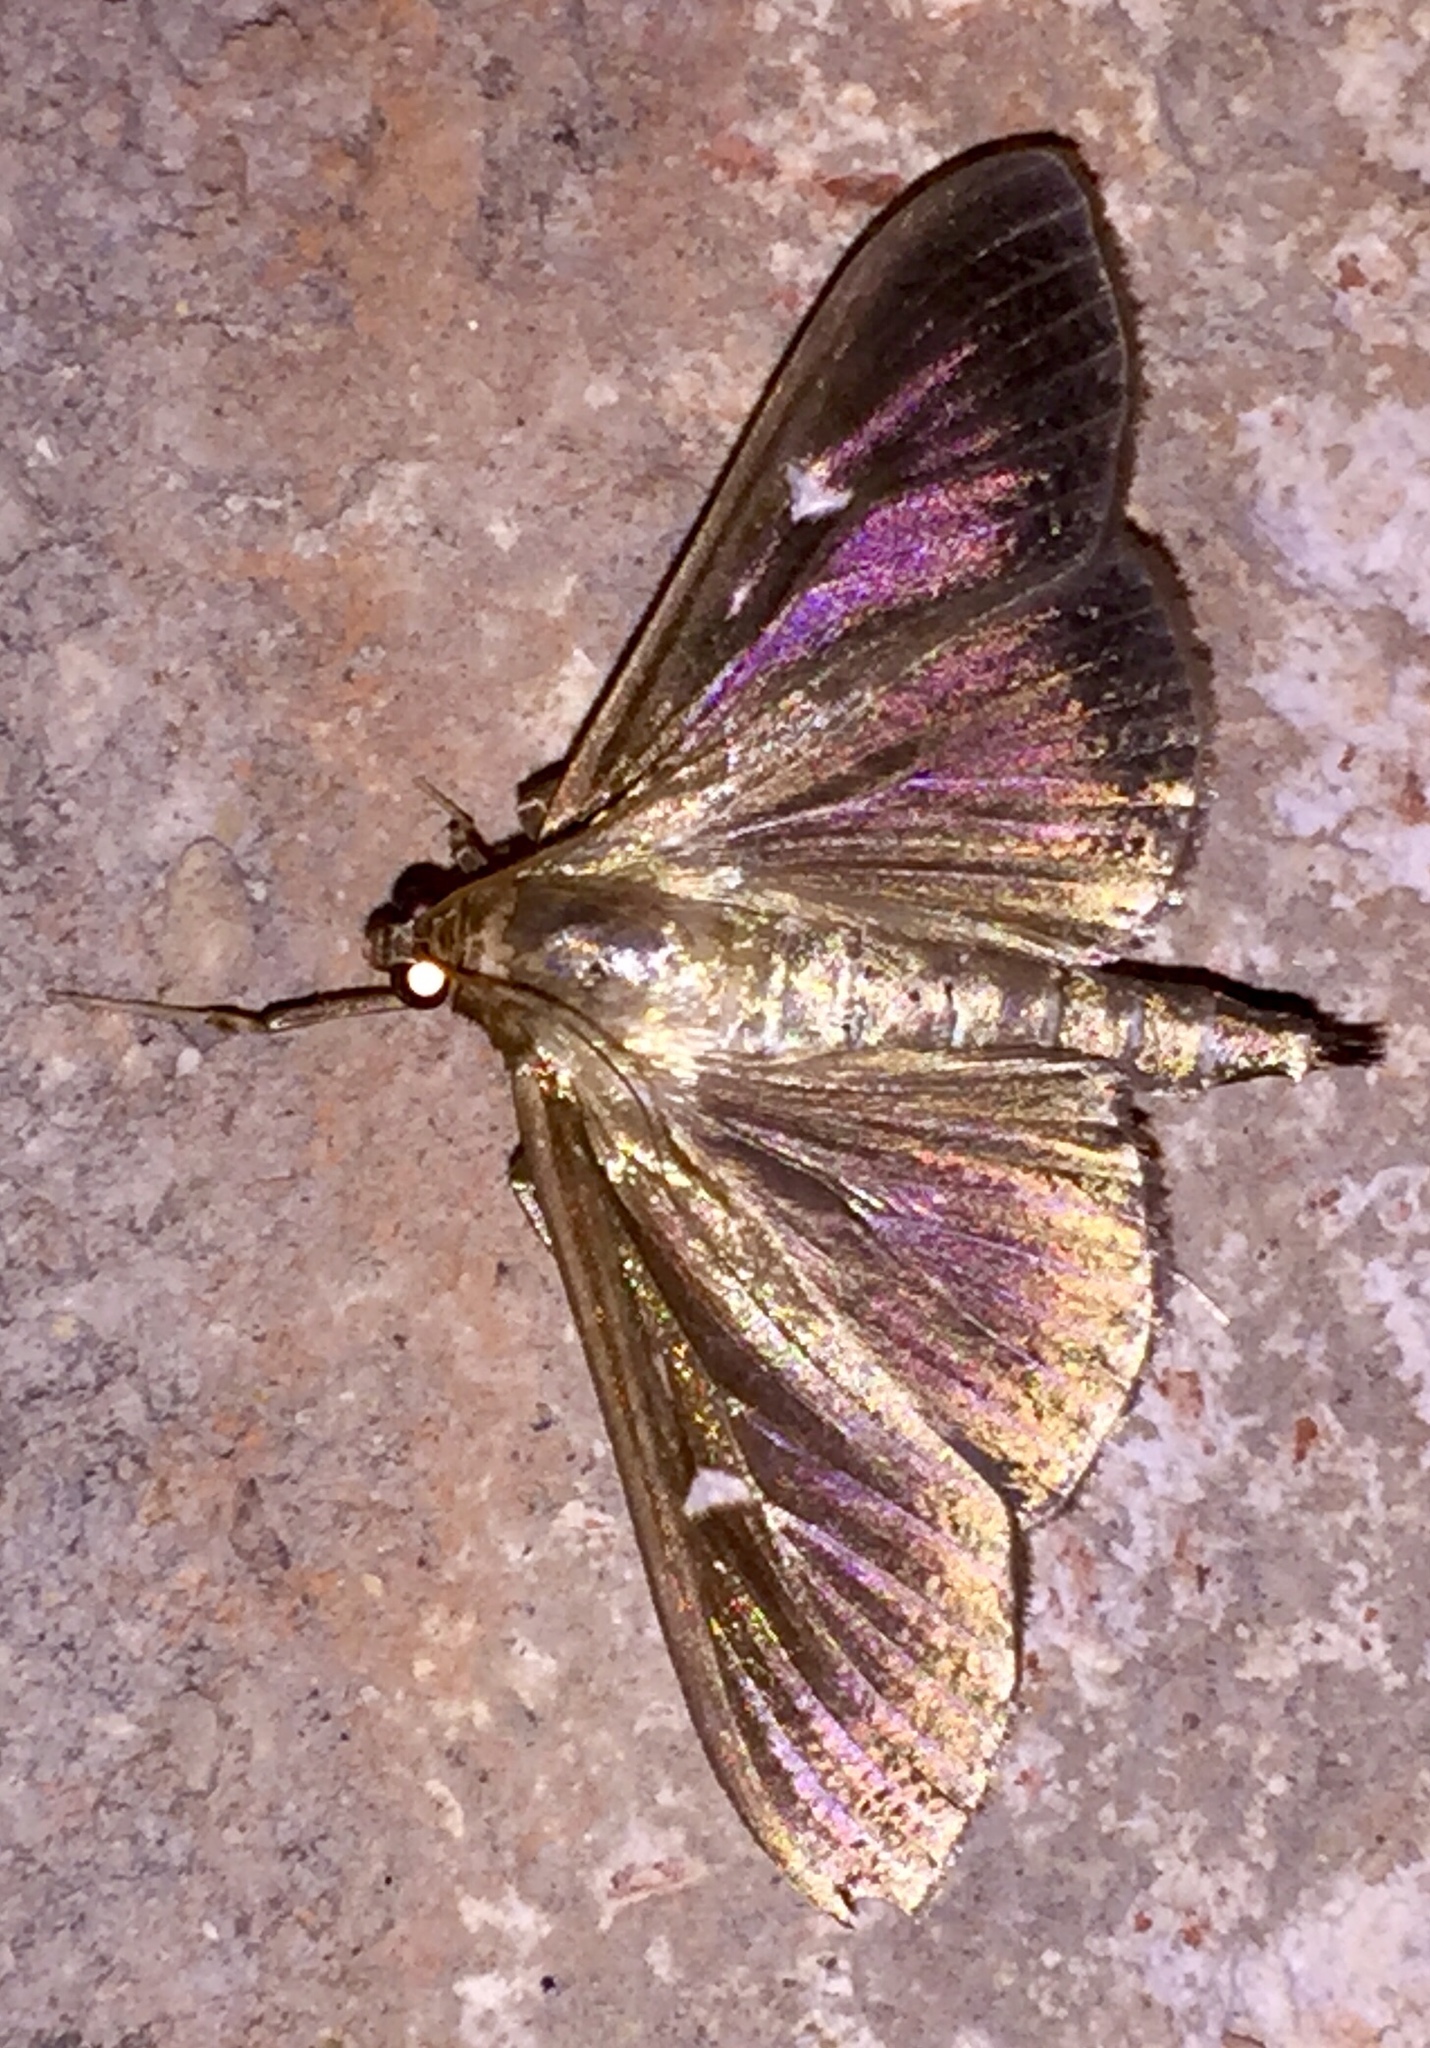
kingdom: Animalia
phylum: Arthropoda
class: Insecta
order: Lepidoptera
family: Crambidae
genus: Cydalima
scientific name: Cydalima perspectalis
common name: Box tree moth
